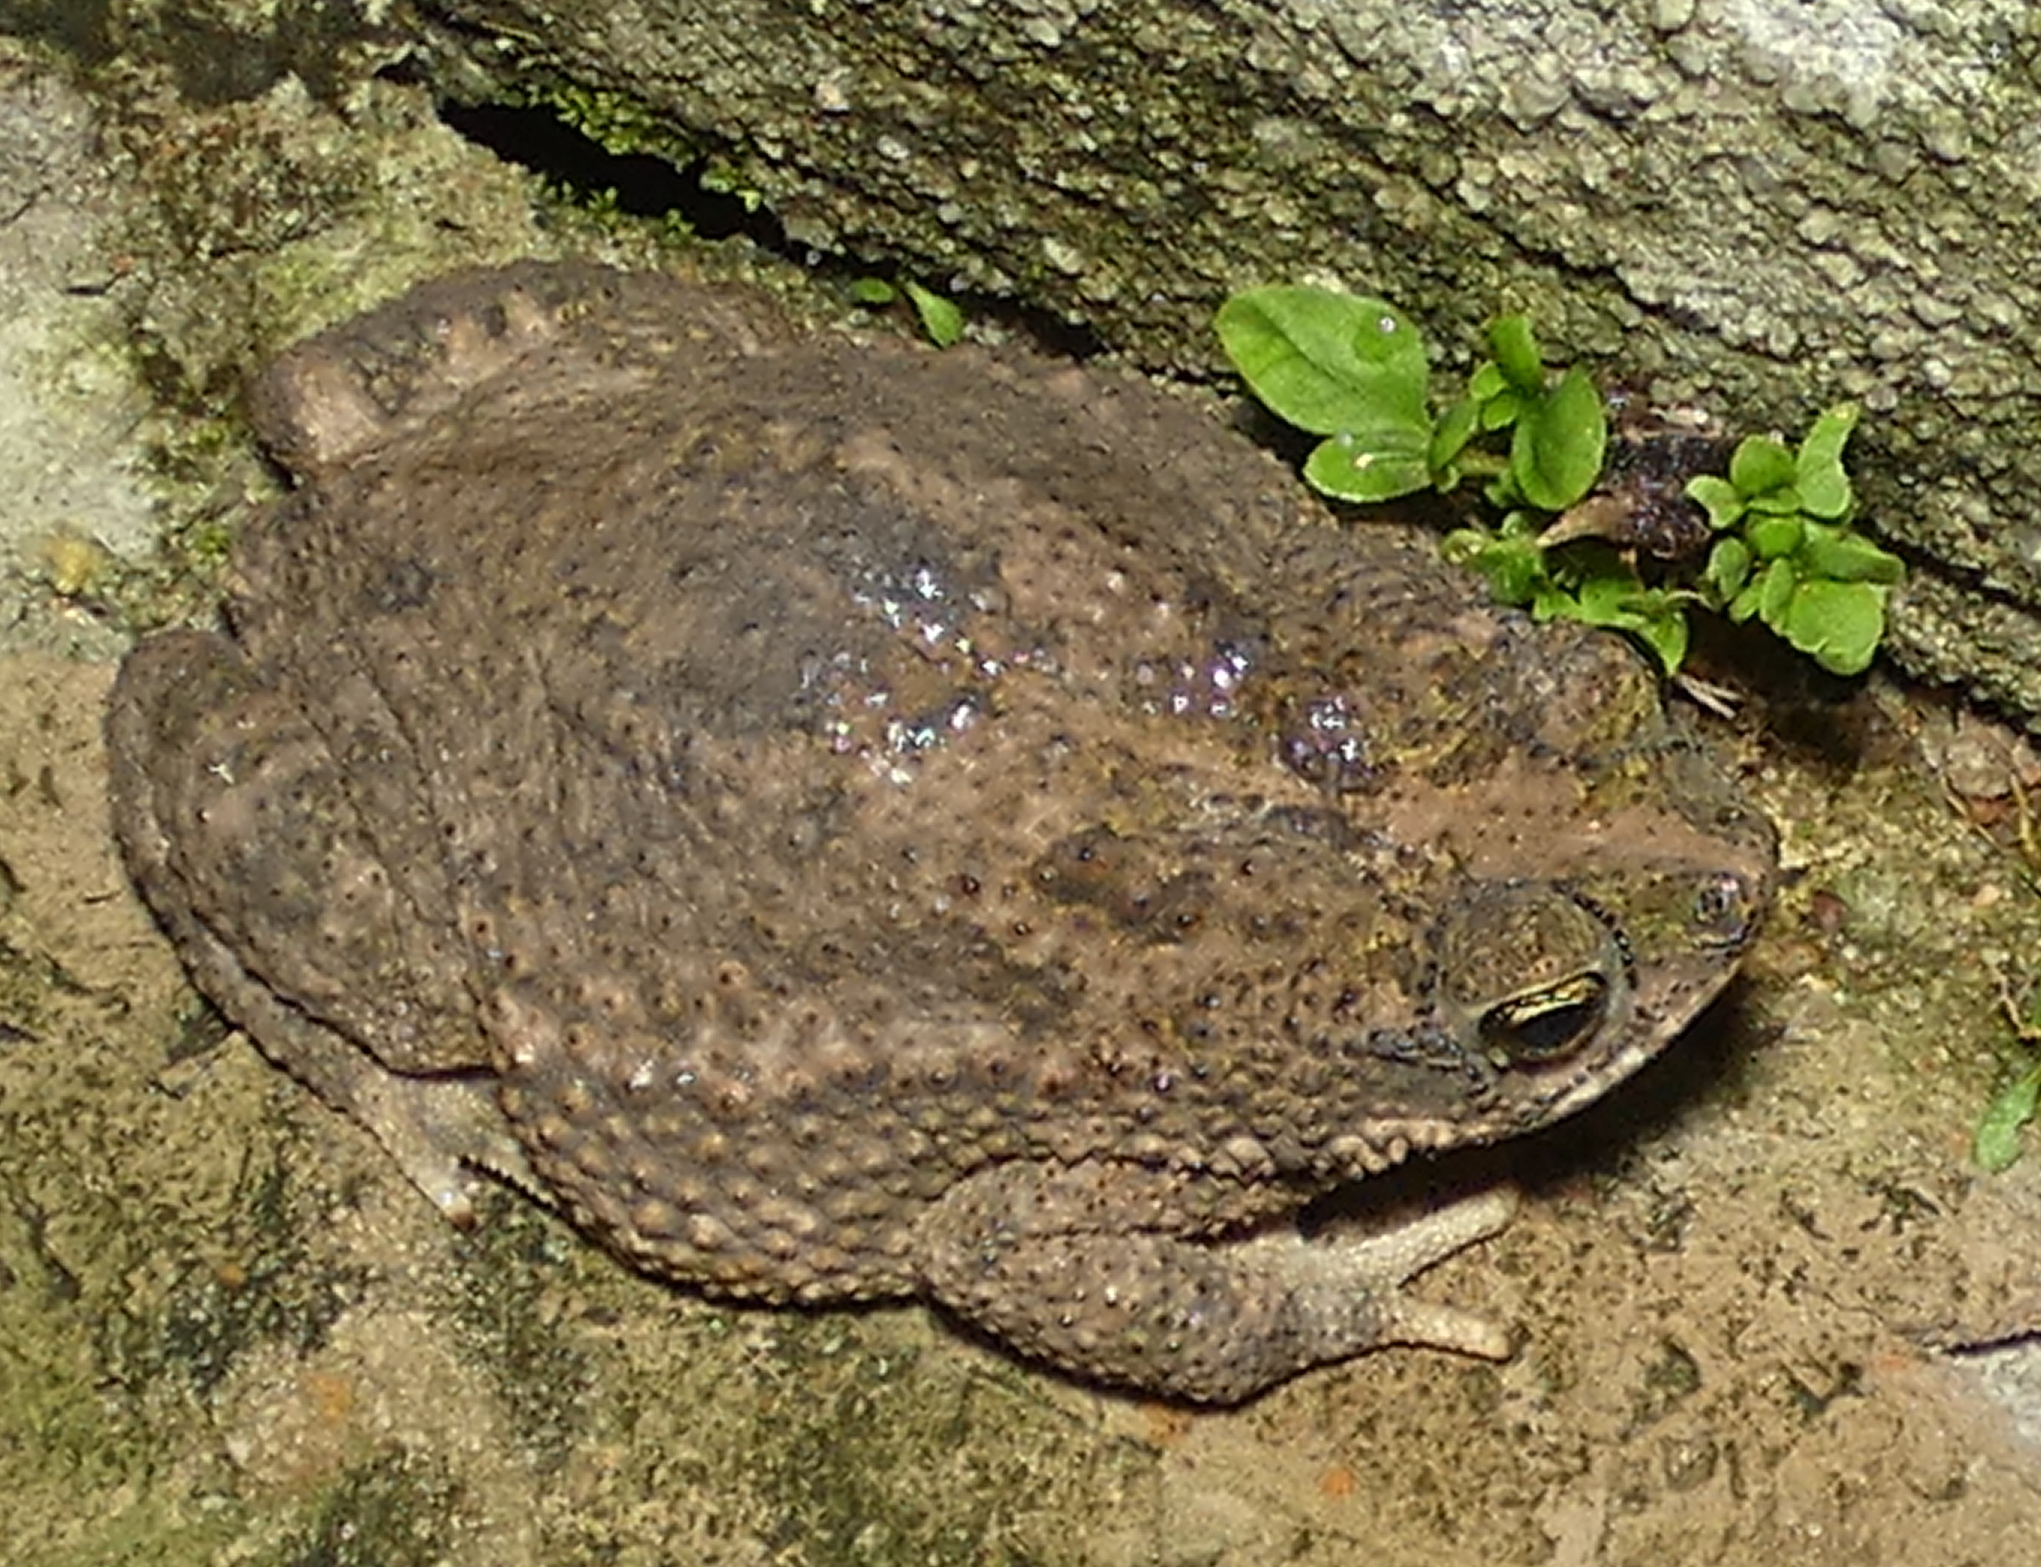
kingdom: Animalia
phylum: Chordata
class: Amphibia
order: Anura
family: Bufonidae
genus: Rhinella
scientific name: Rhinella granulosa
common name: Common lesser toad
